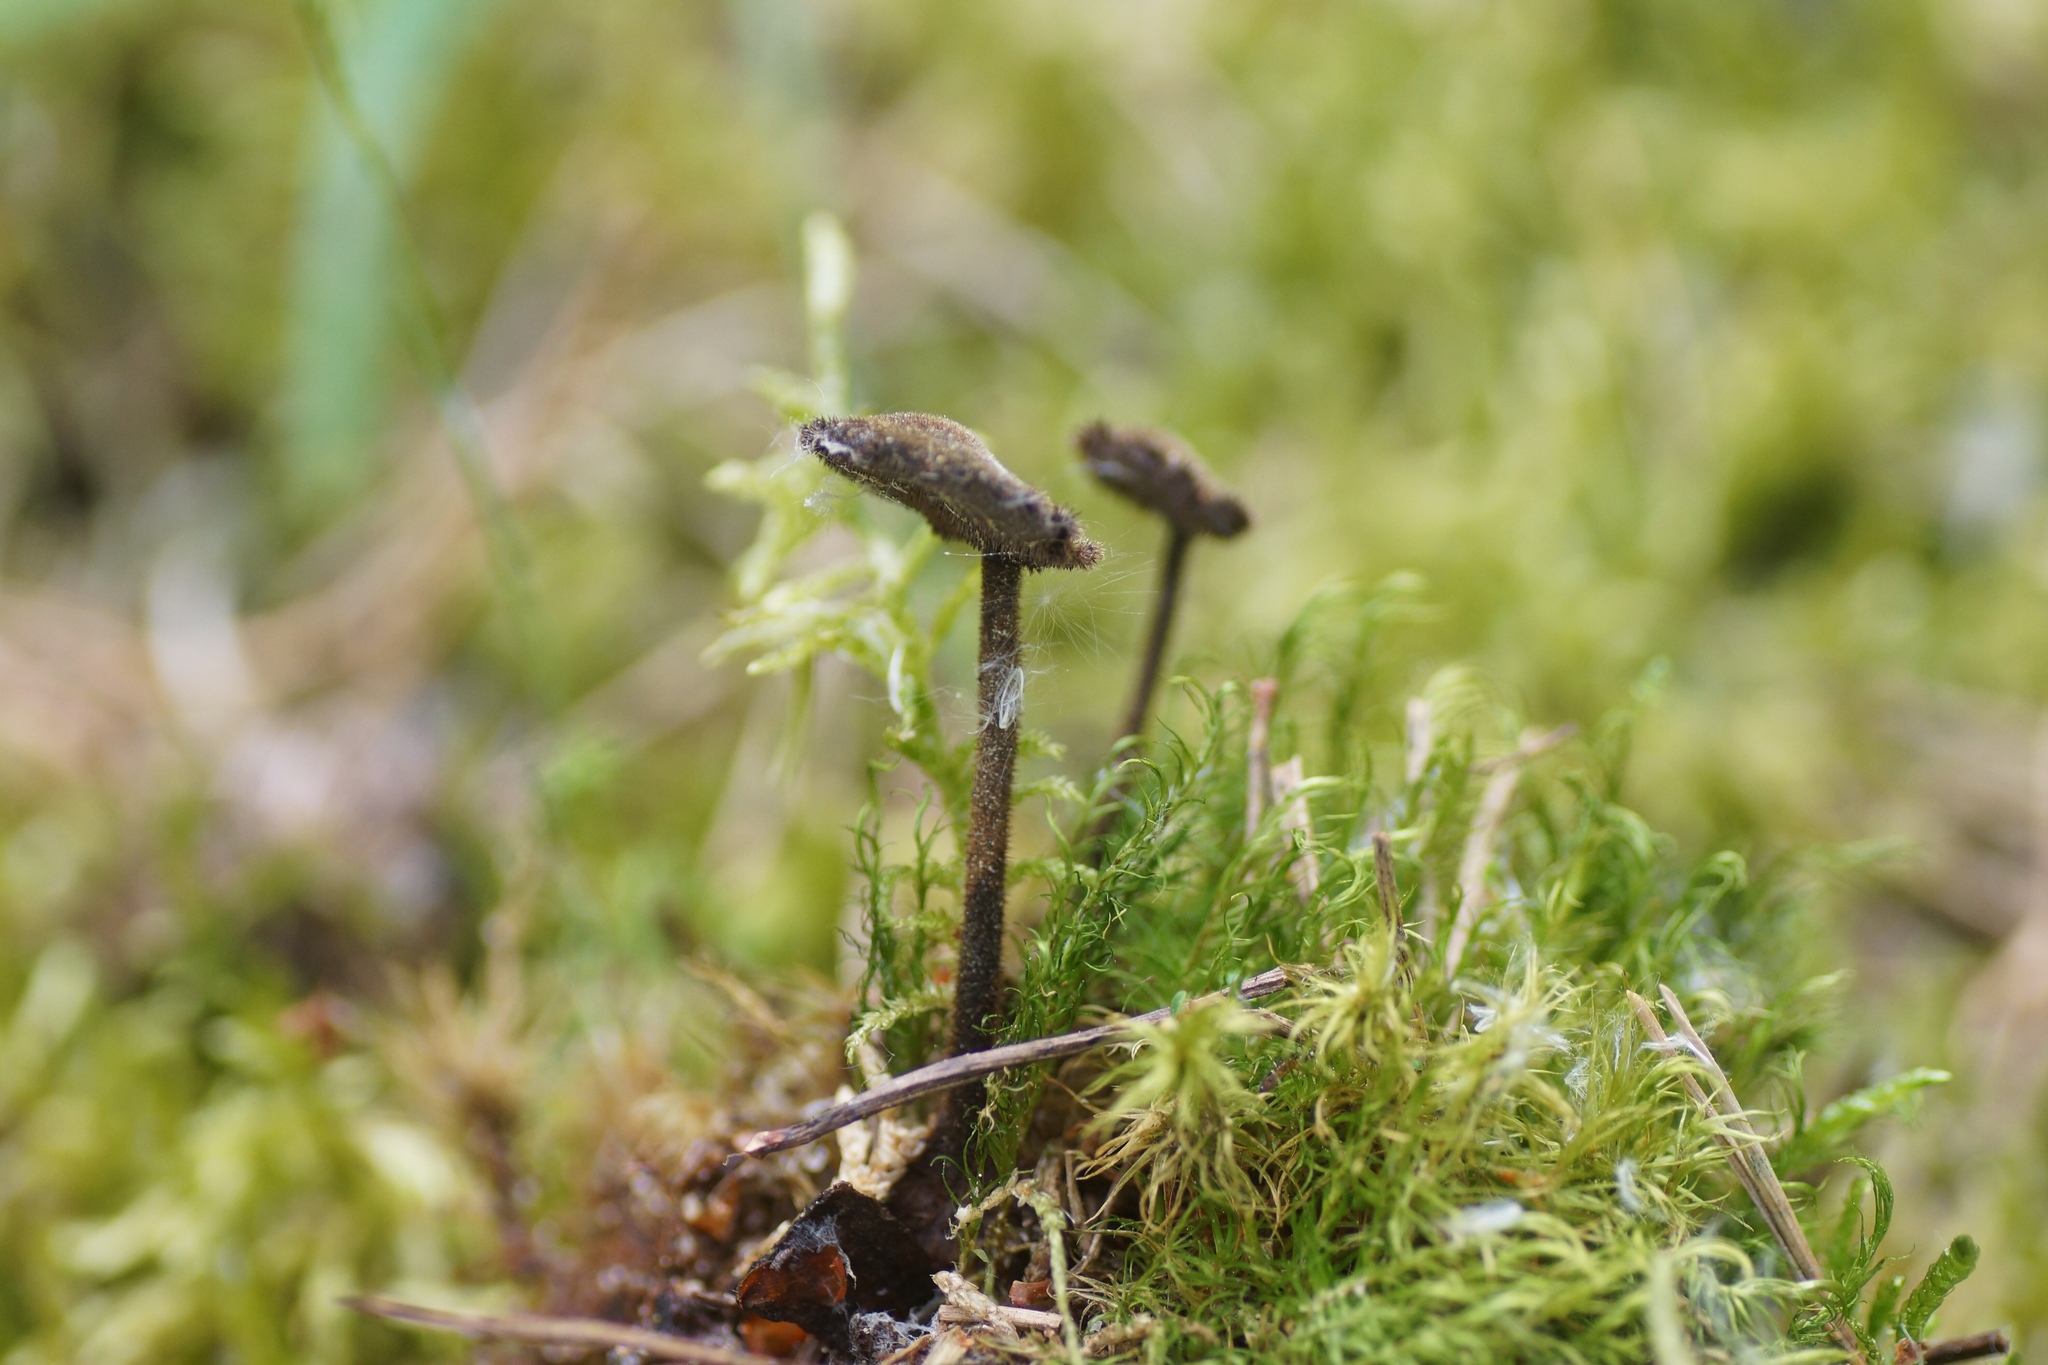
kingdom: Fungi
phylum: Basidiomycota
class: Agaricomycetes
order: Russulales
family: Auriscalpiaceae
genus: Auriscalpium
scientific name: Auriscalpium vulgare
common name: Earpick fungus
